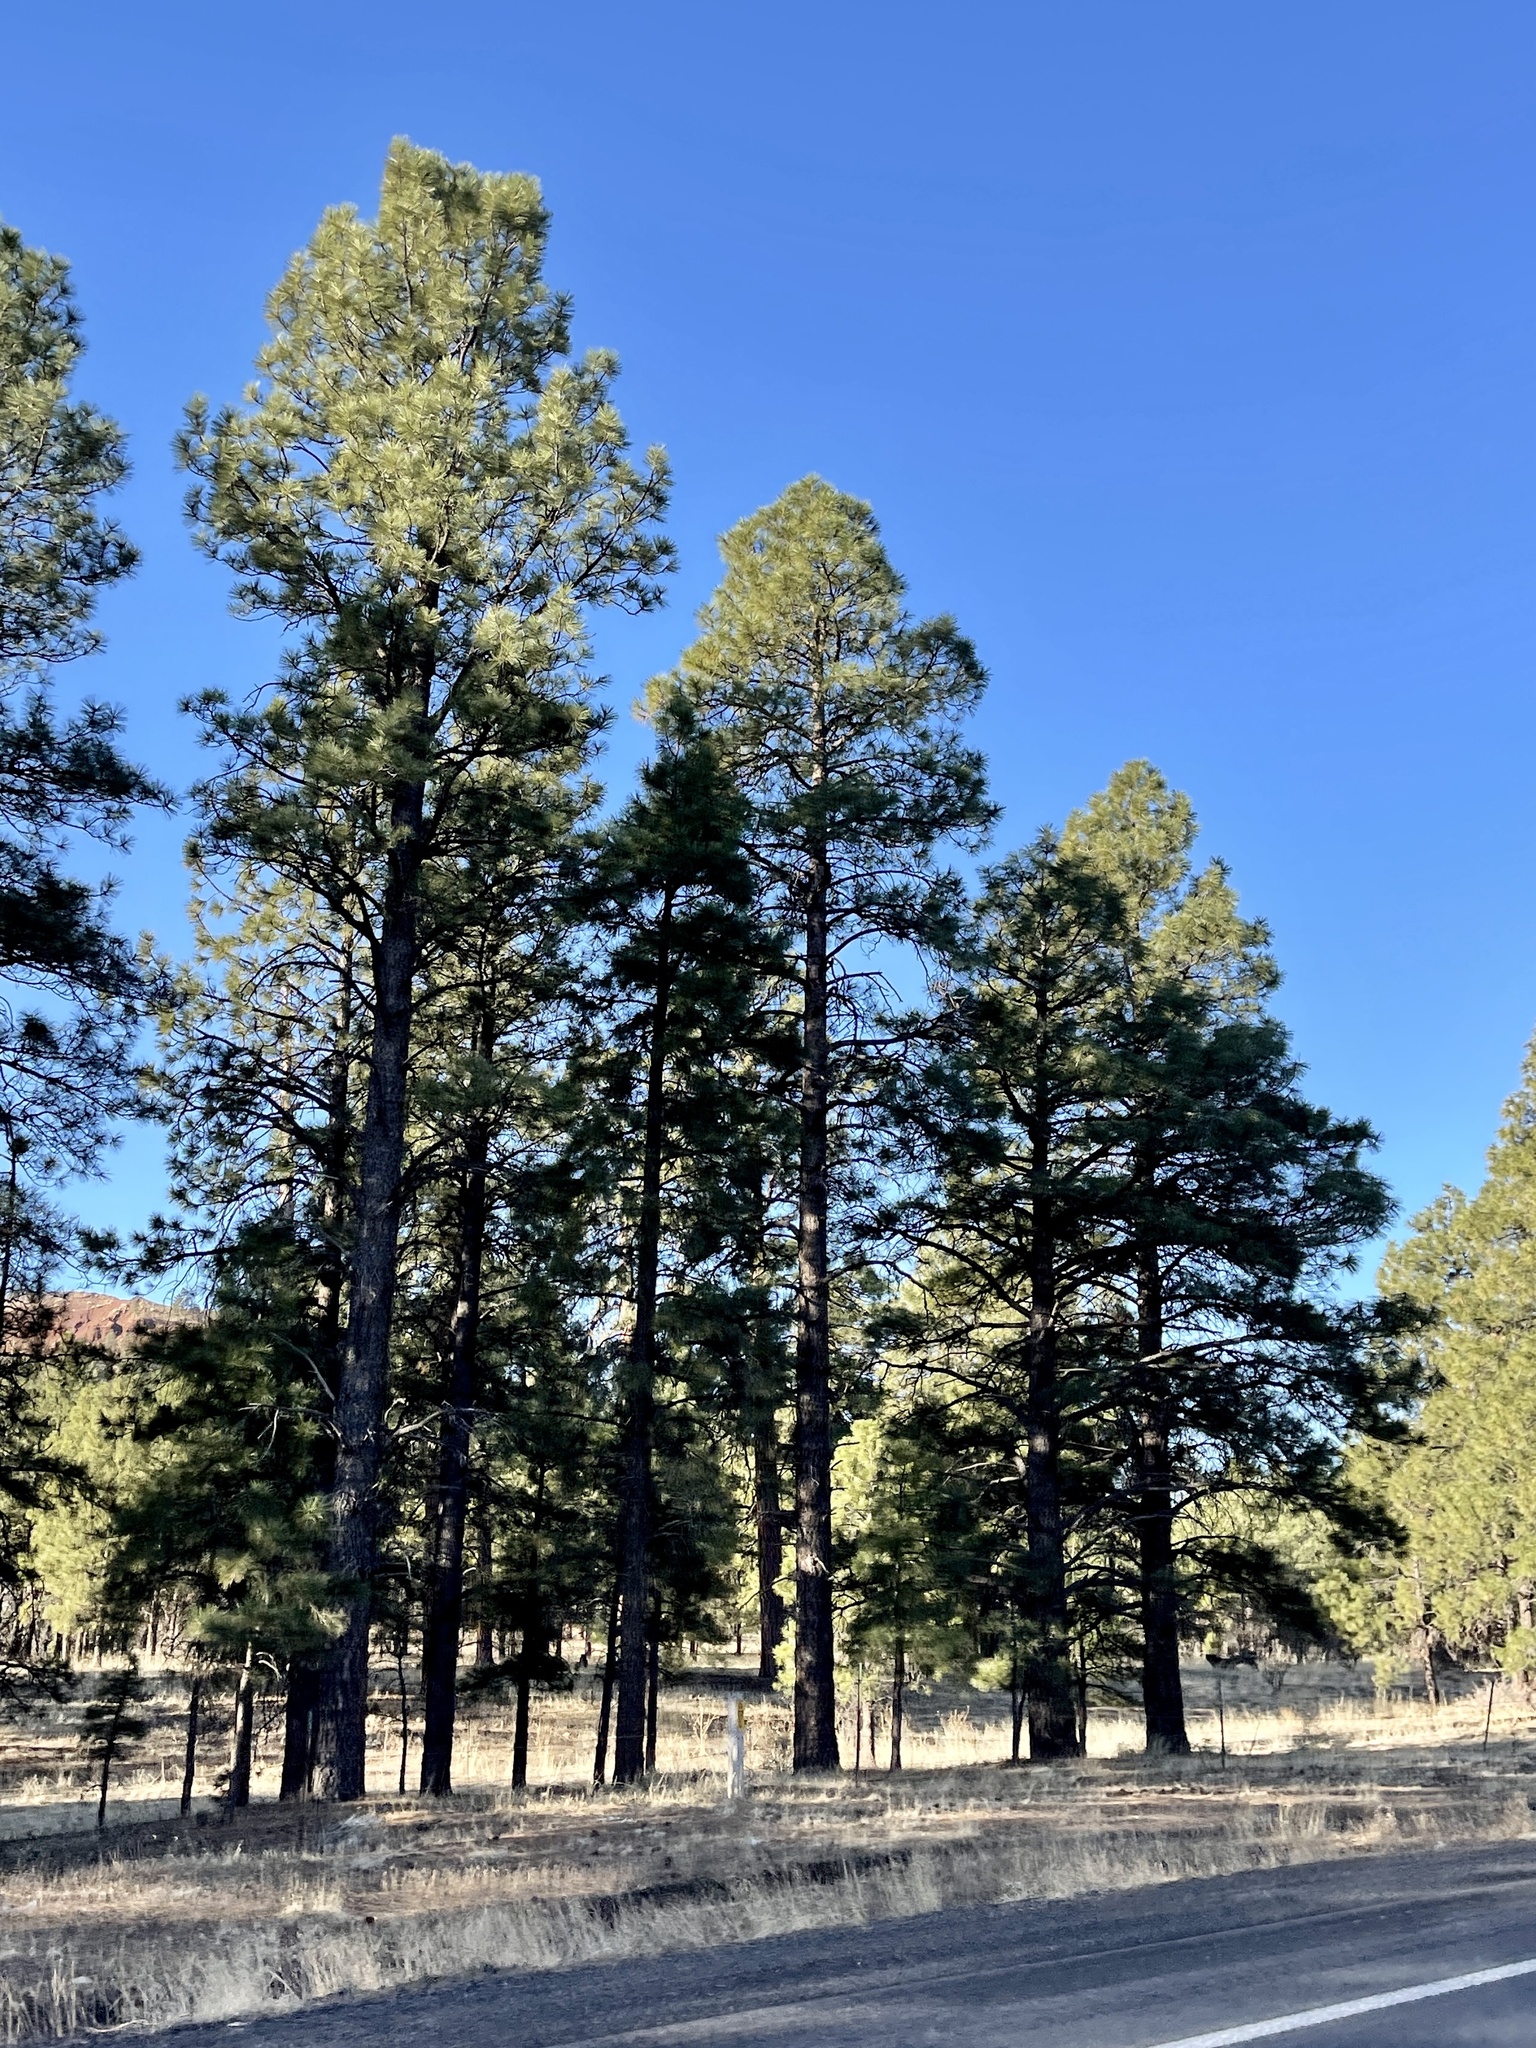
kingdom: Plantae
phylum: Tracheophyta
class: Pinopsida
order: Pinales
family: Pinaceae
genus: Pinus
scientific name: Pinus ponderosa
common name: Western yellow-pine
